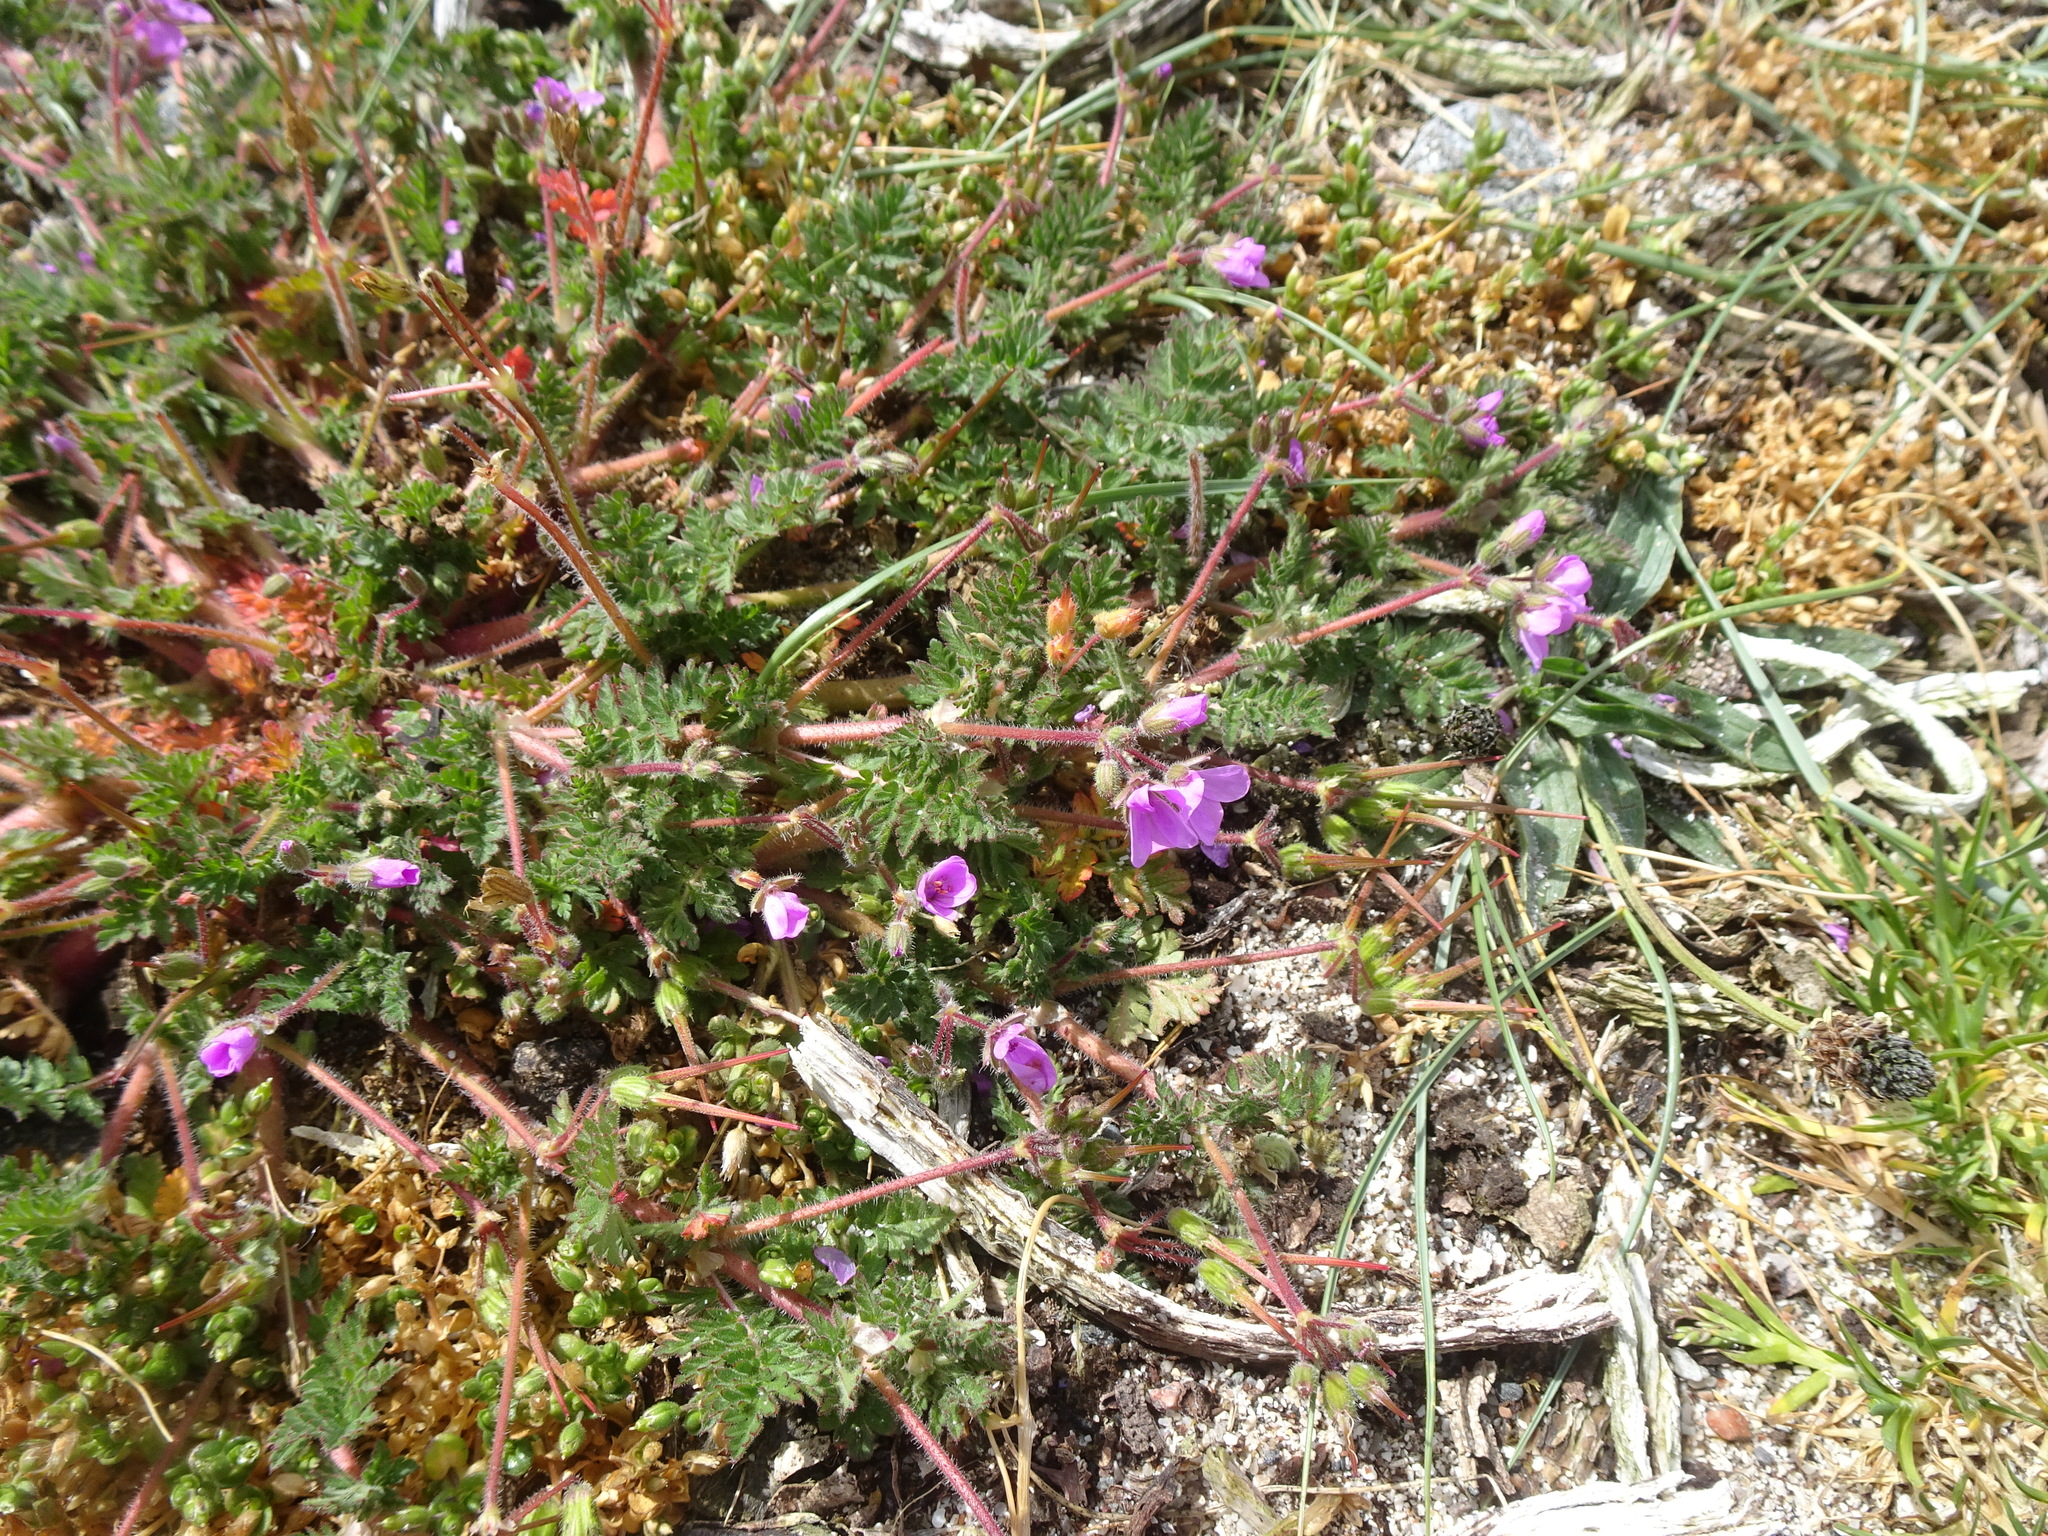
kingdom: Plantae
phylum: Tracheophyta
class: Magnoliopsida
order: Geraniales
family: Geraniaceae
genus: Erodium
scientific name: Erodium cicutarium
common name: Common stork's-bill
